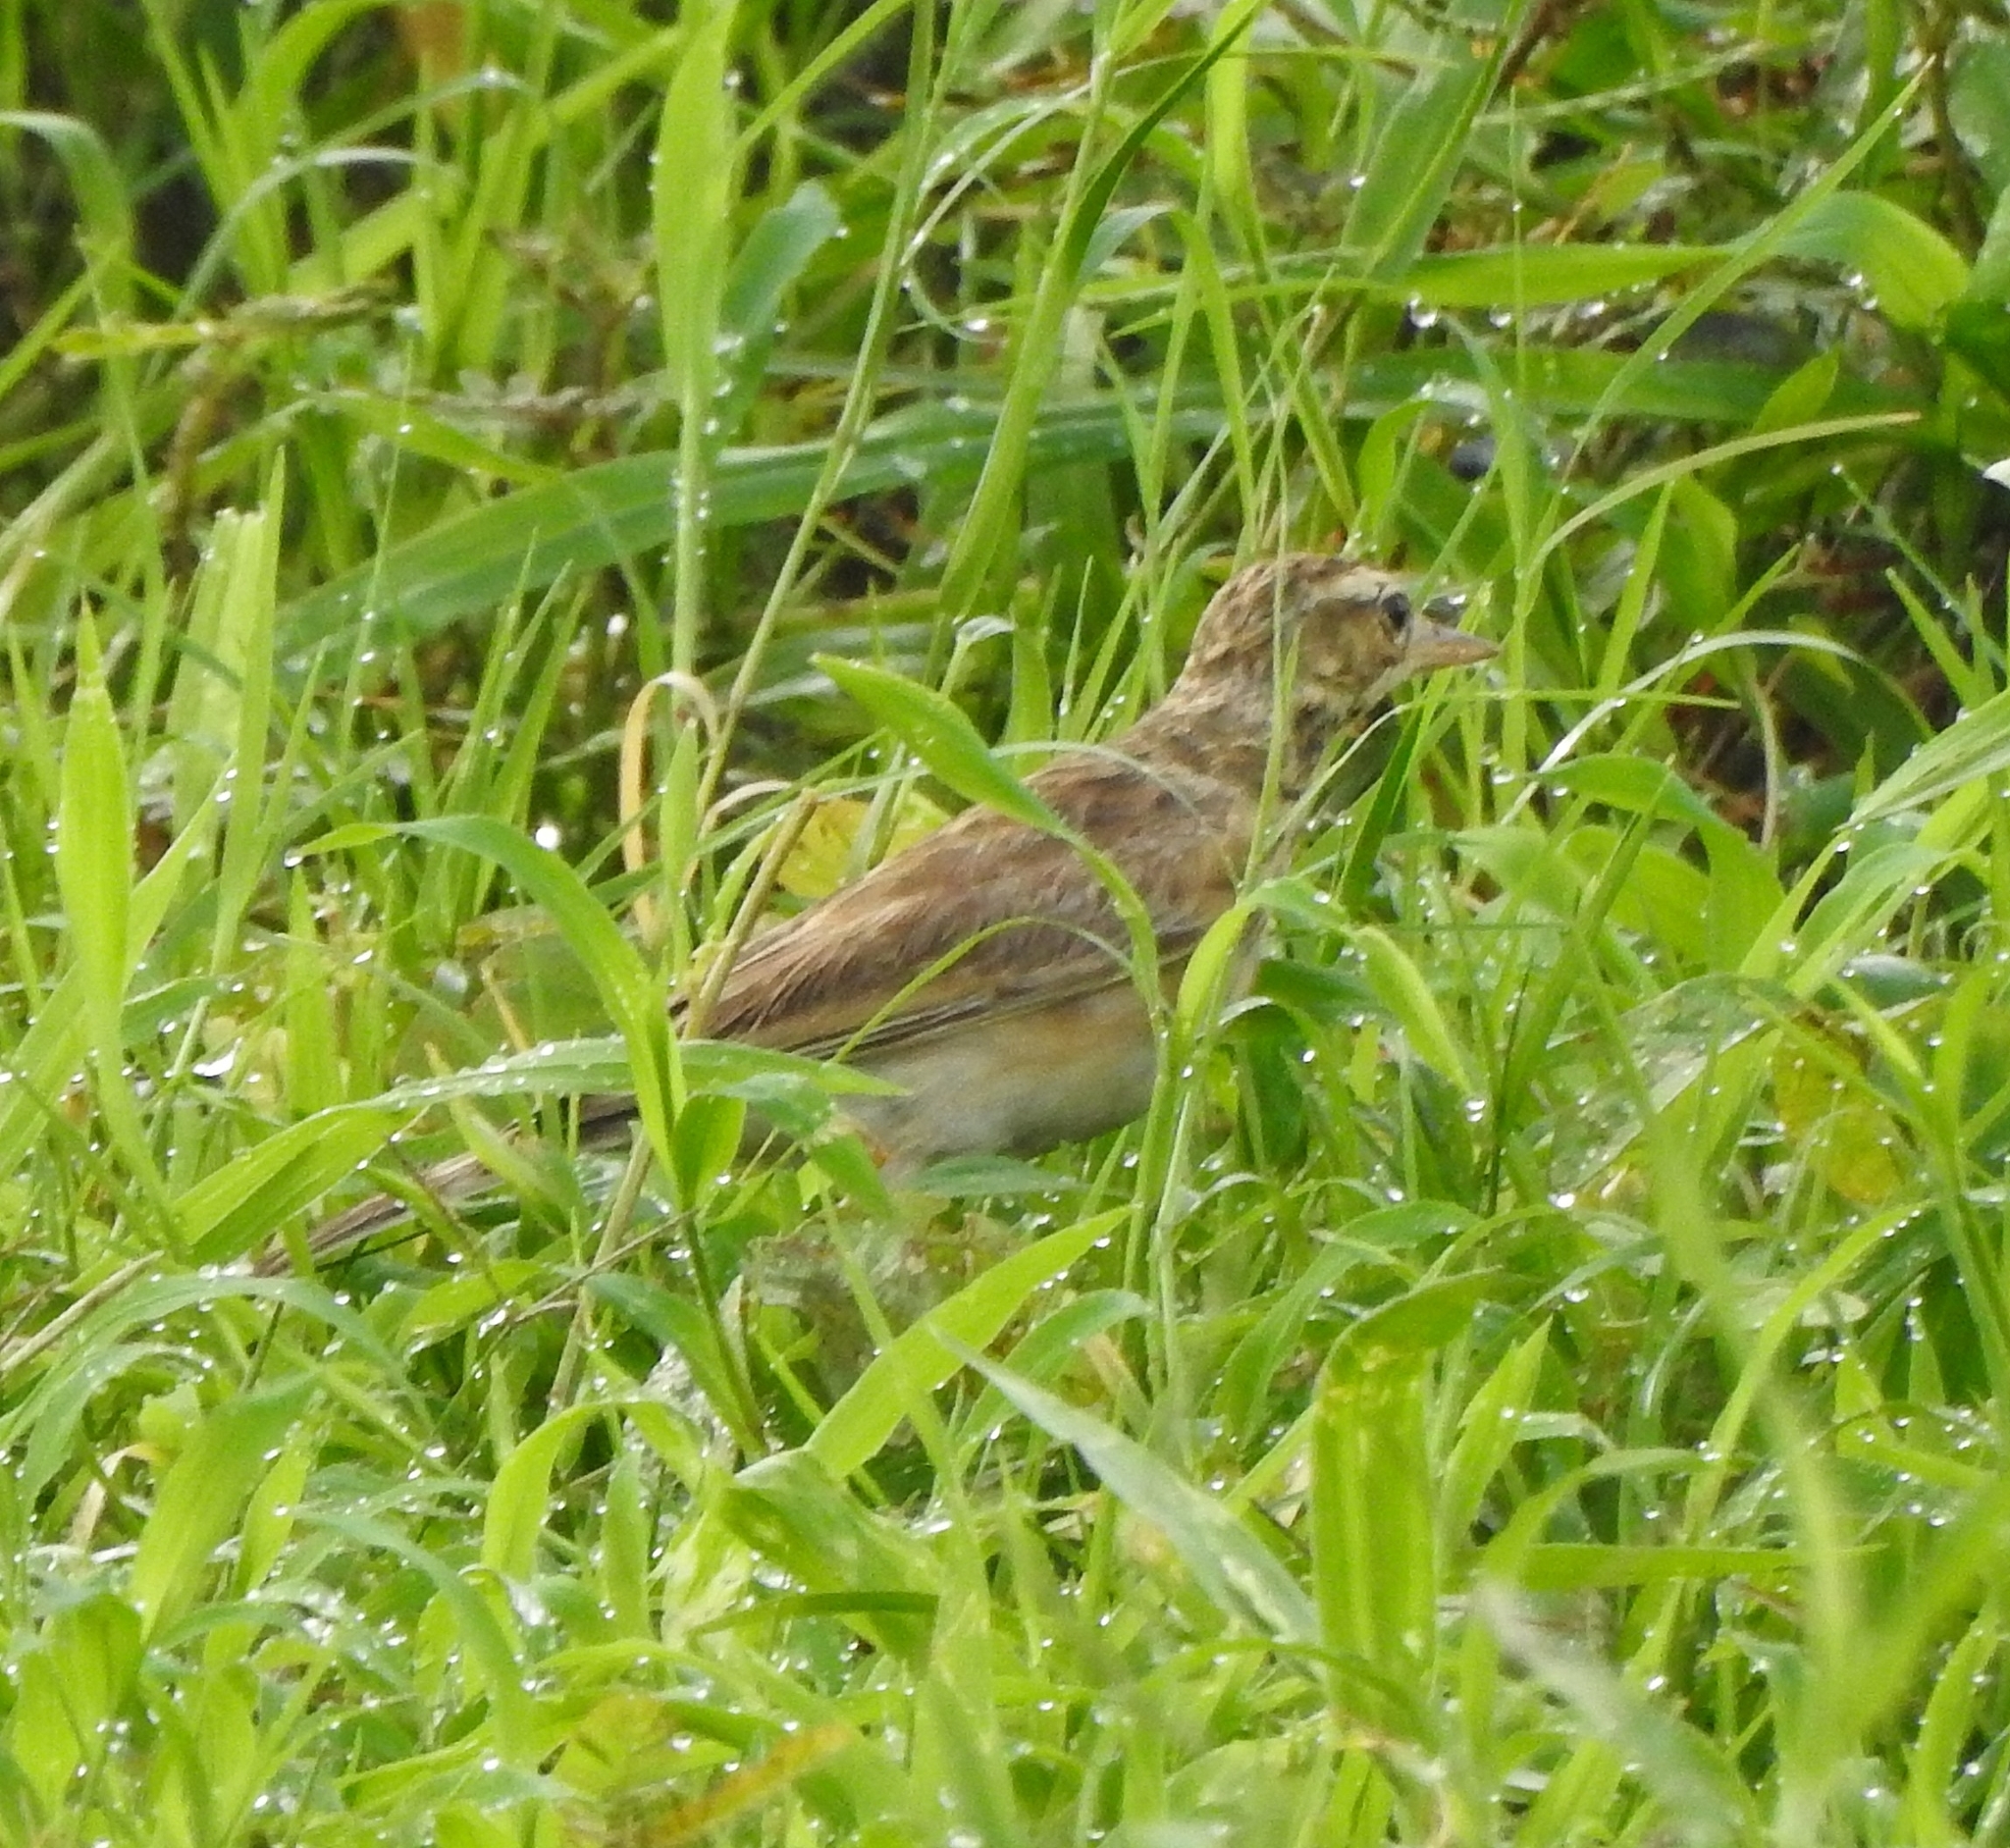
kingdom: Animalia
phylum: Chordata
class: Aves
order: Passeriformes
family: Motacillidae
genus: Anthus
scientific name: Anthus rufulus
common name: Paddyfield pipit
